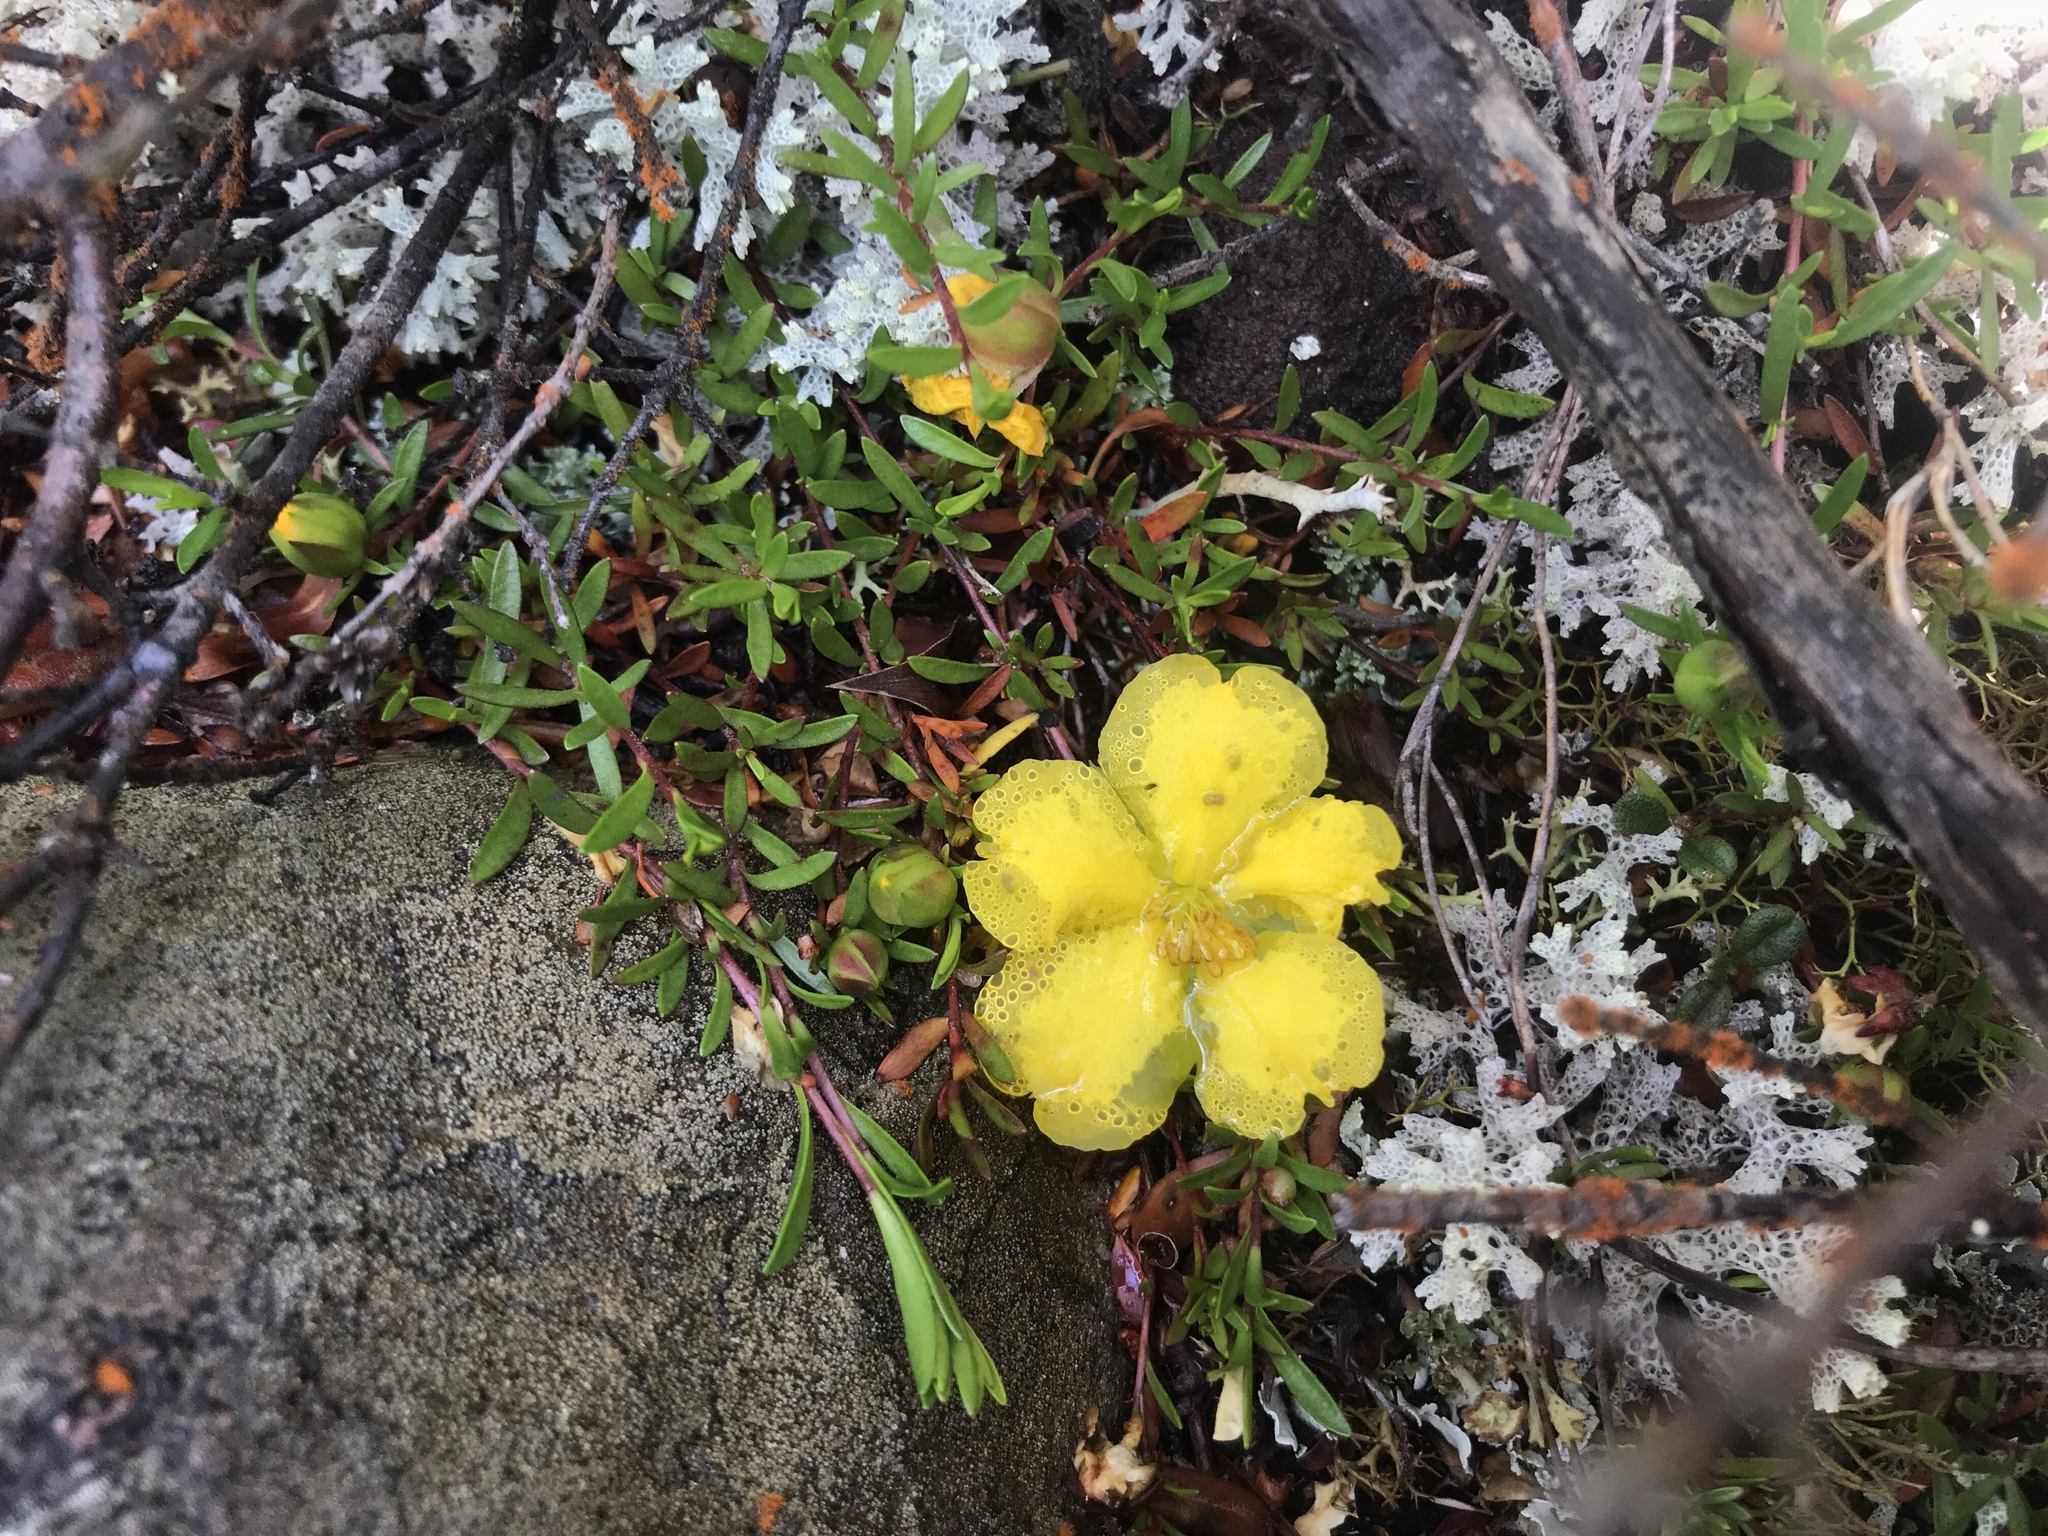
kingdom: Plantae
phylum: Tracheophyta
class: Magnoliopsida
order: Dilleniales
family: Dilleniaceae
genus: Hibbertia
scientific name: Hibbertia procumbens
